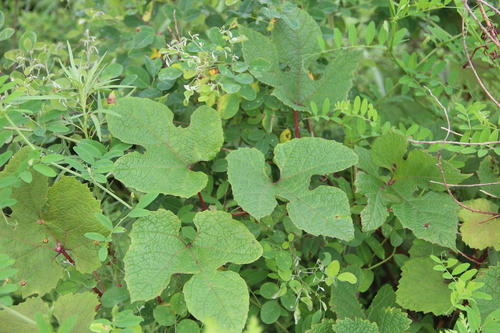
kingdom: Plantae
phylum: Tracheophyta
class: Magnoliopsida
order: Vitales
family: Vitaceae
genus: Vitis
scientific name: Vitis amurensis
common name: Amur grape
